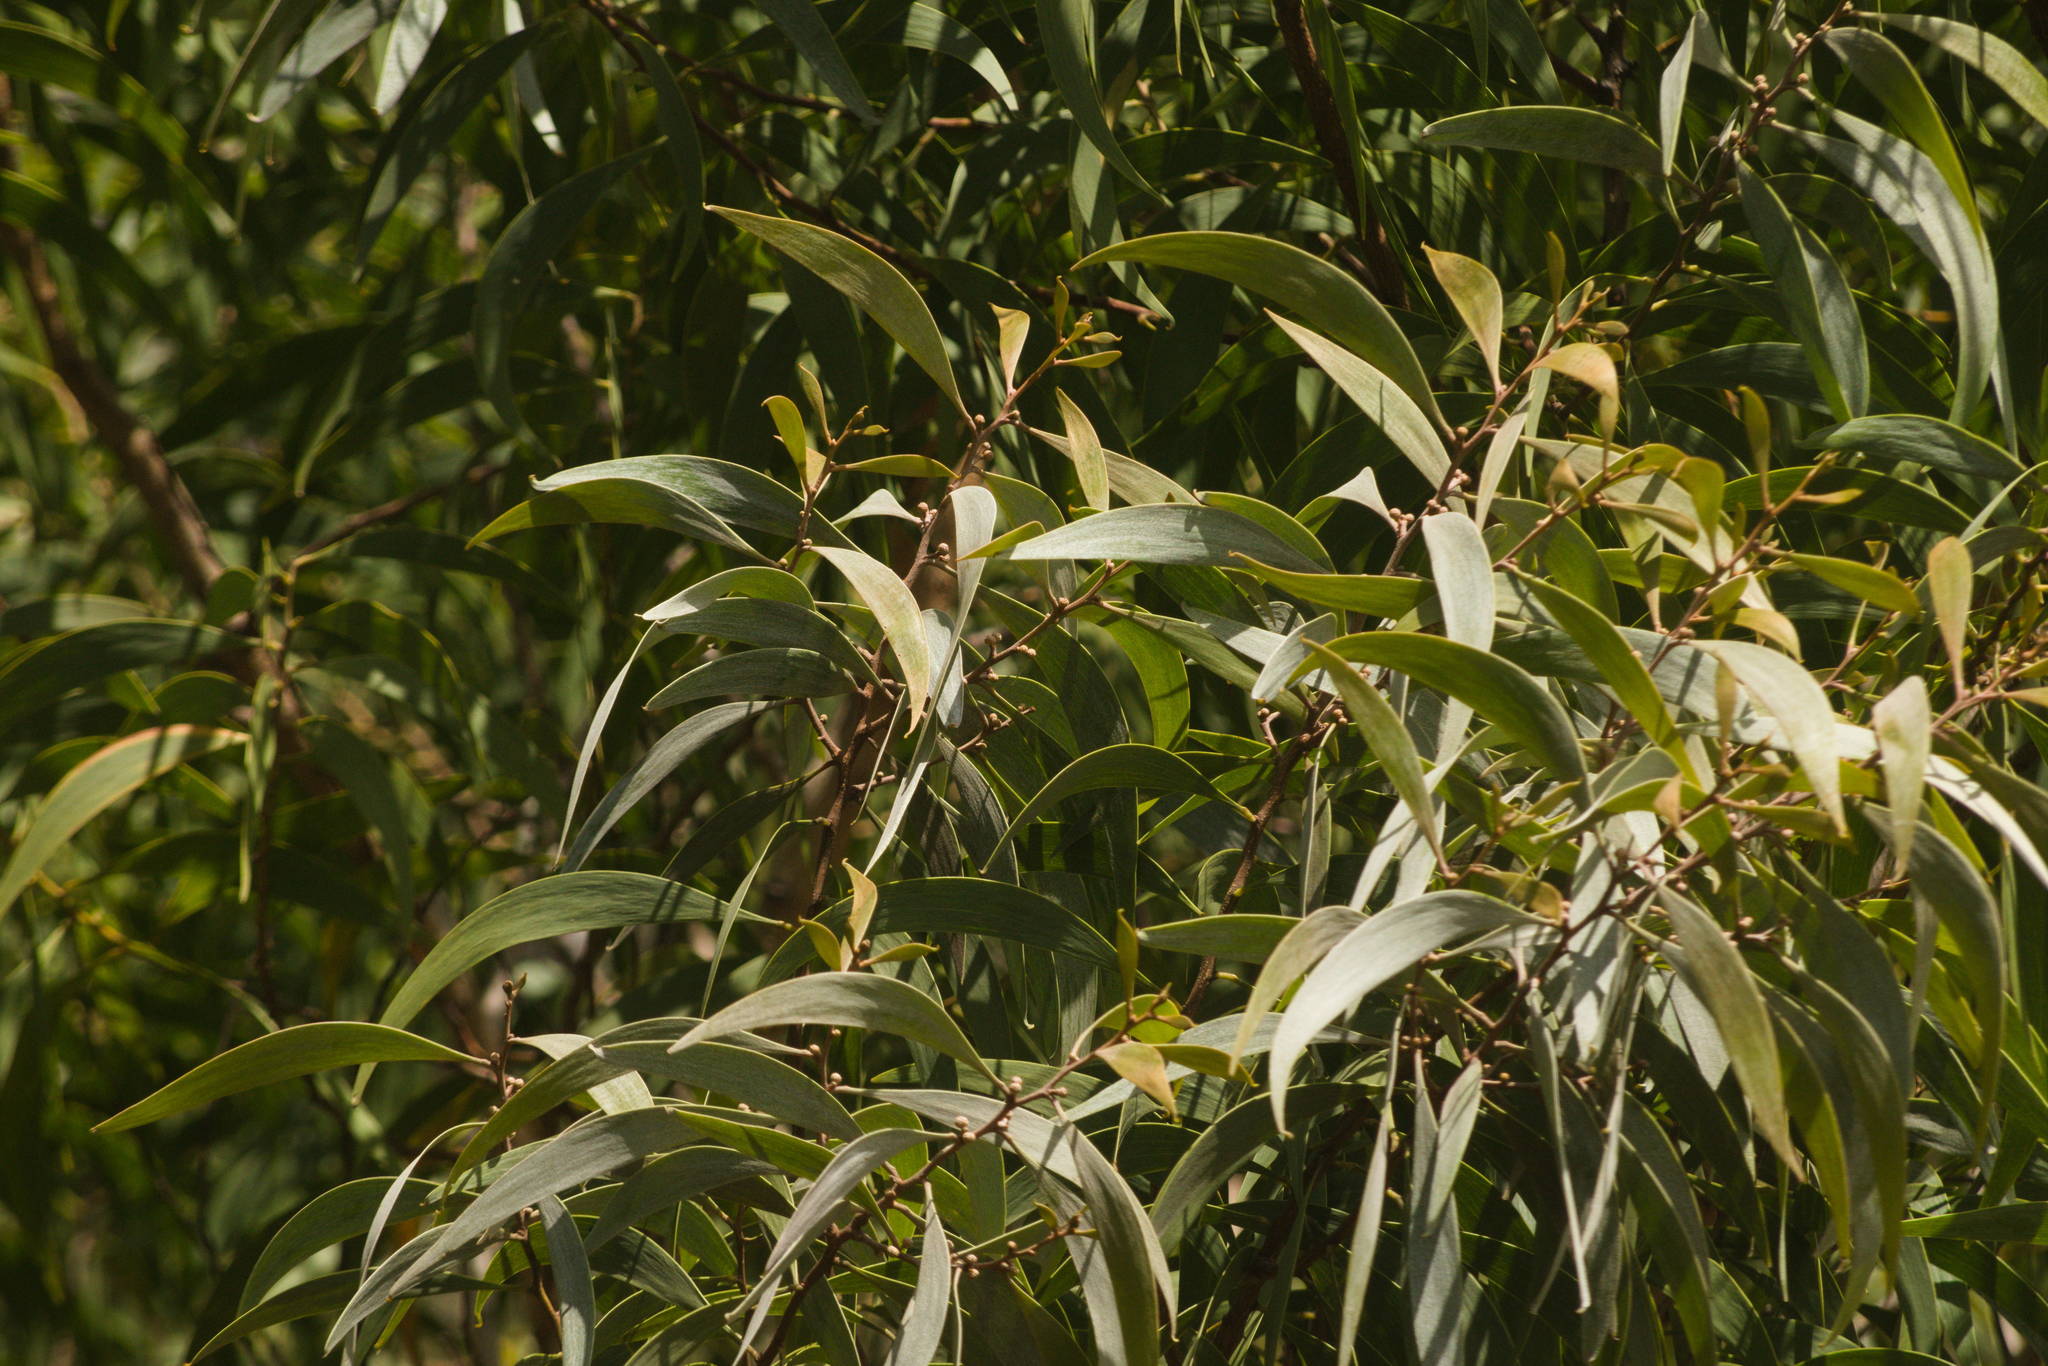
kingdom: Plantae
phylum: Tracheophyta
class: Magnoliopsida
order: Fabales
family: Fabaceae
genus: Acacia
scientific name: Acacia koa
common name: Gray koa
